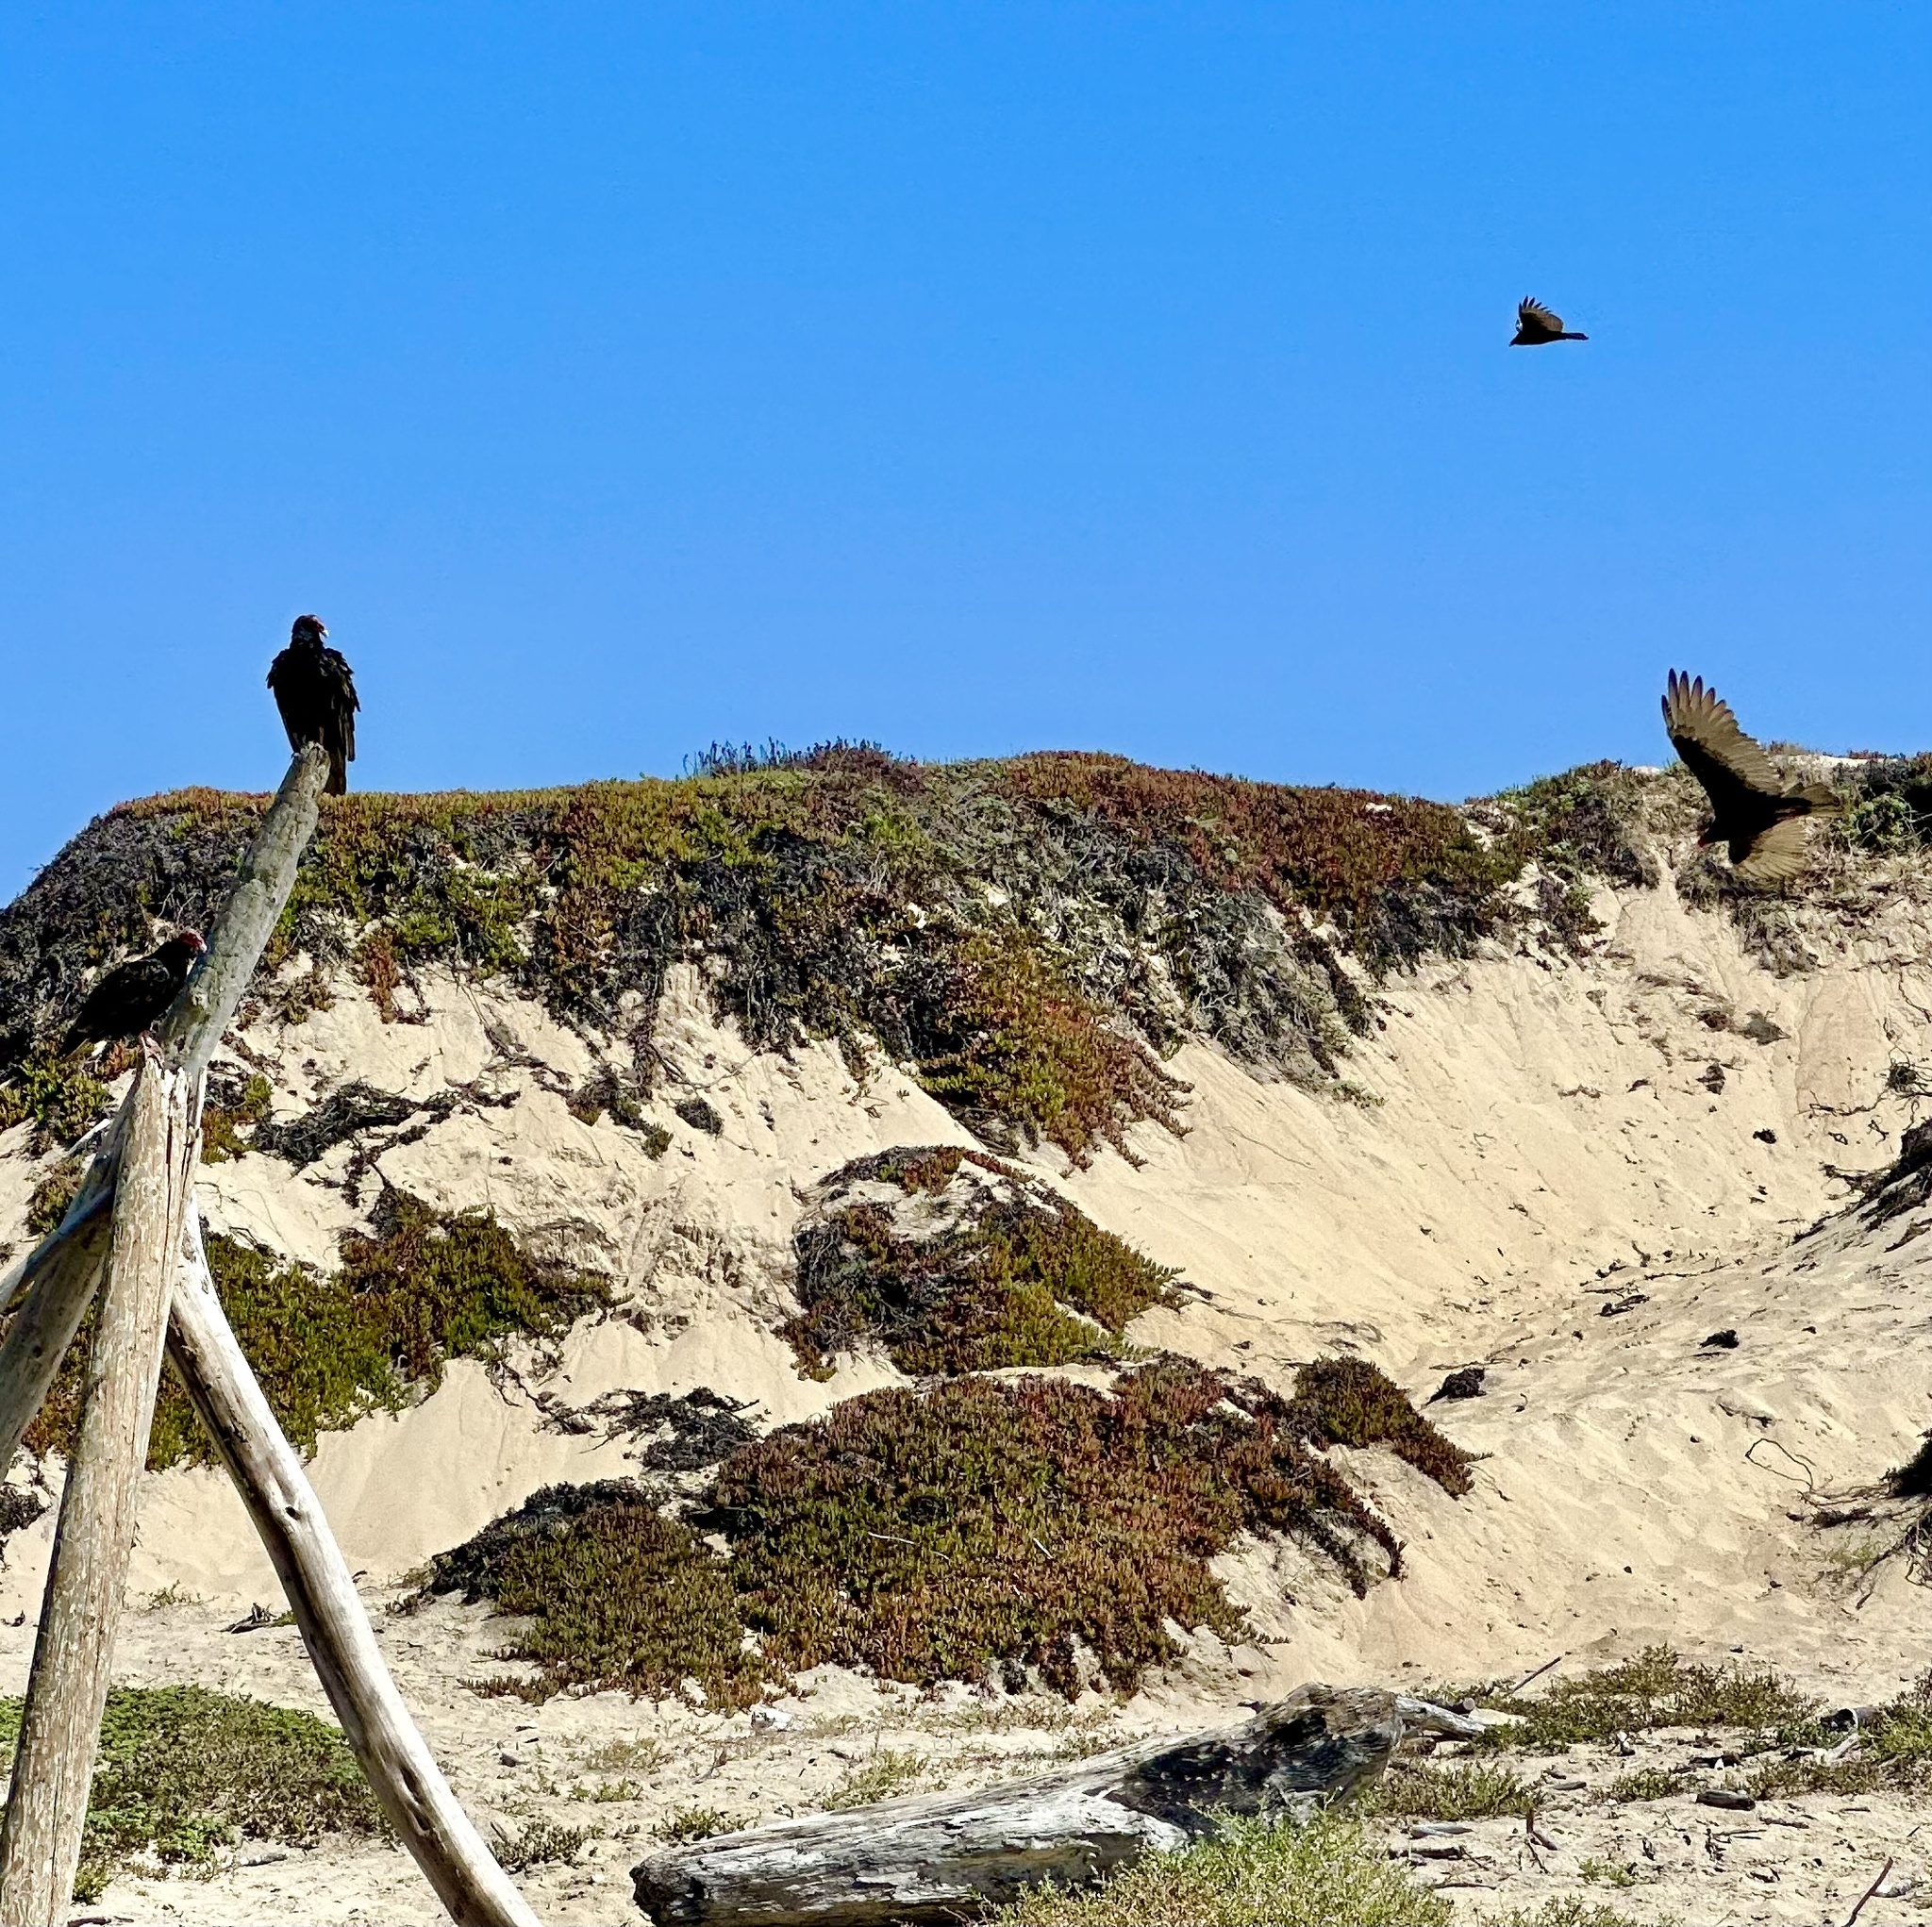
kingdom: Animalia
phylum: Chordata
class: Aves
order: Accipitriformes
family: Cathartidae
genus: Cathartes
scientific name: Cathartes aura
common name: Turkey vulture
